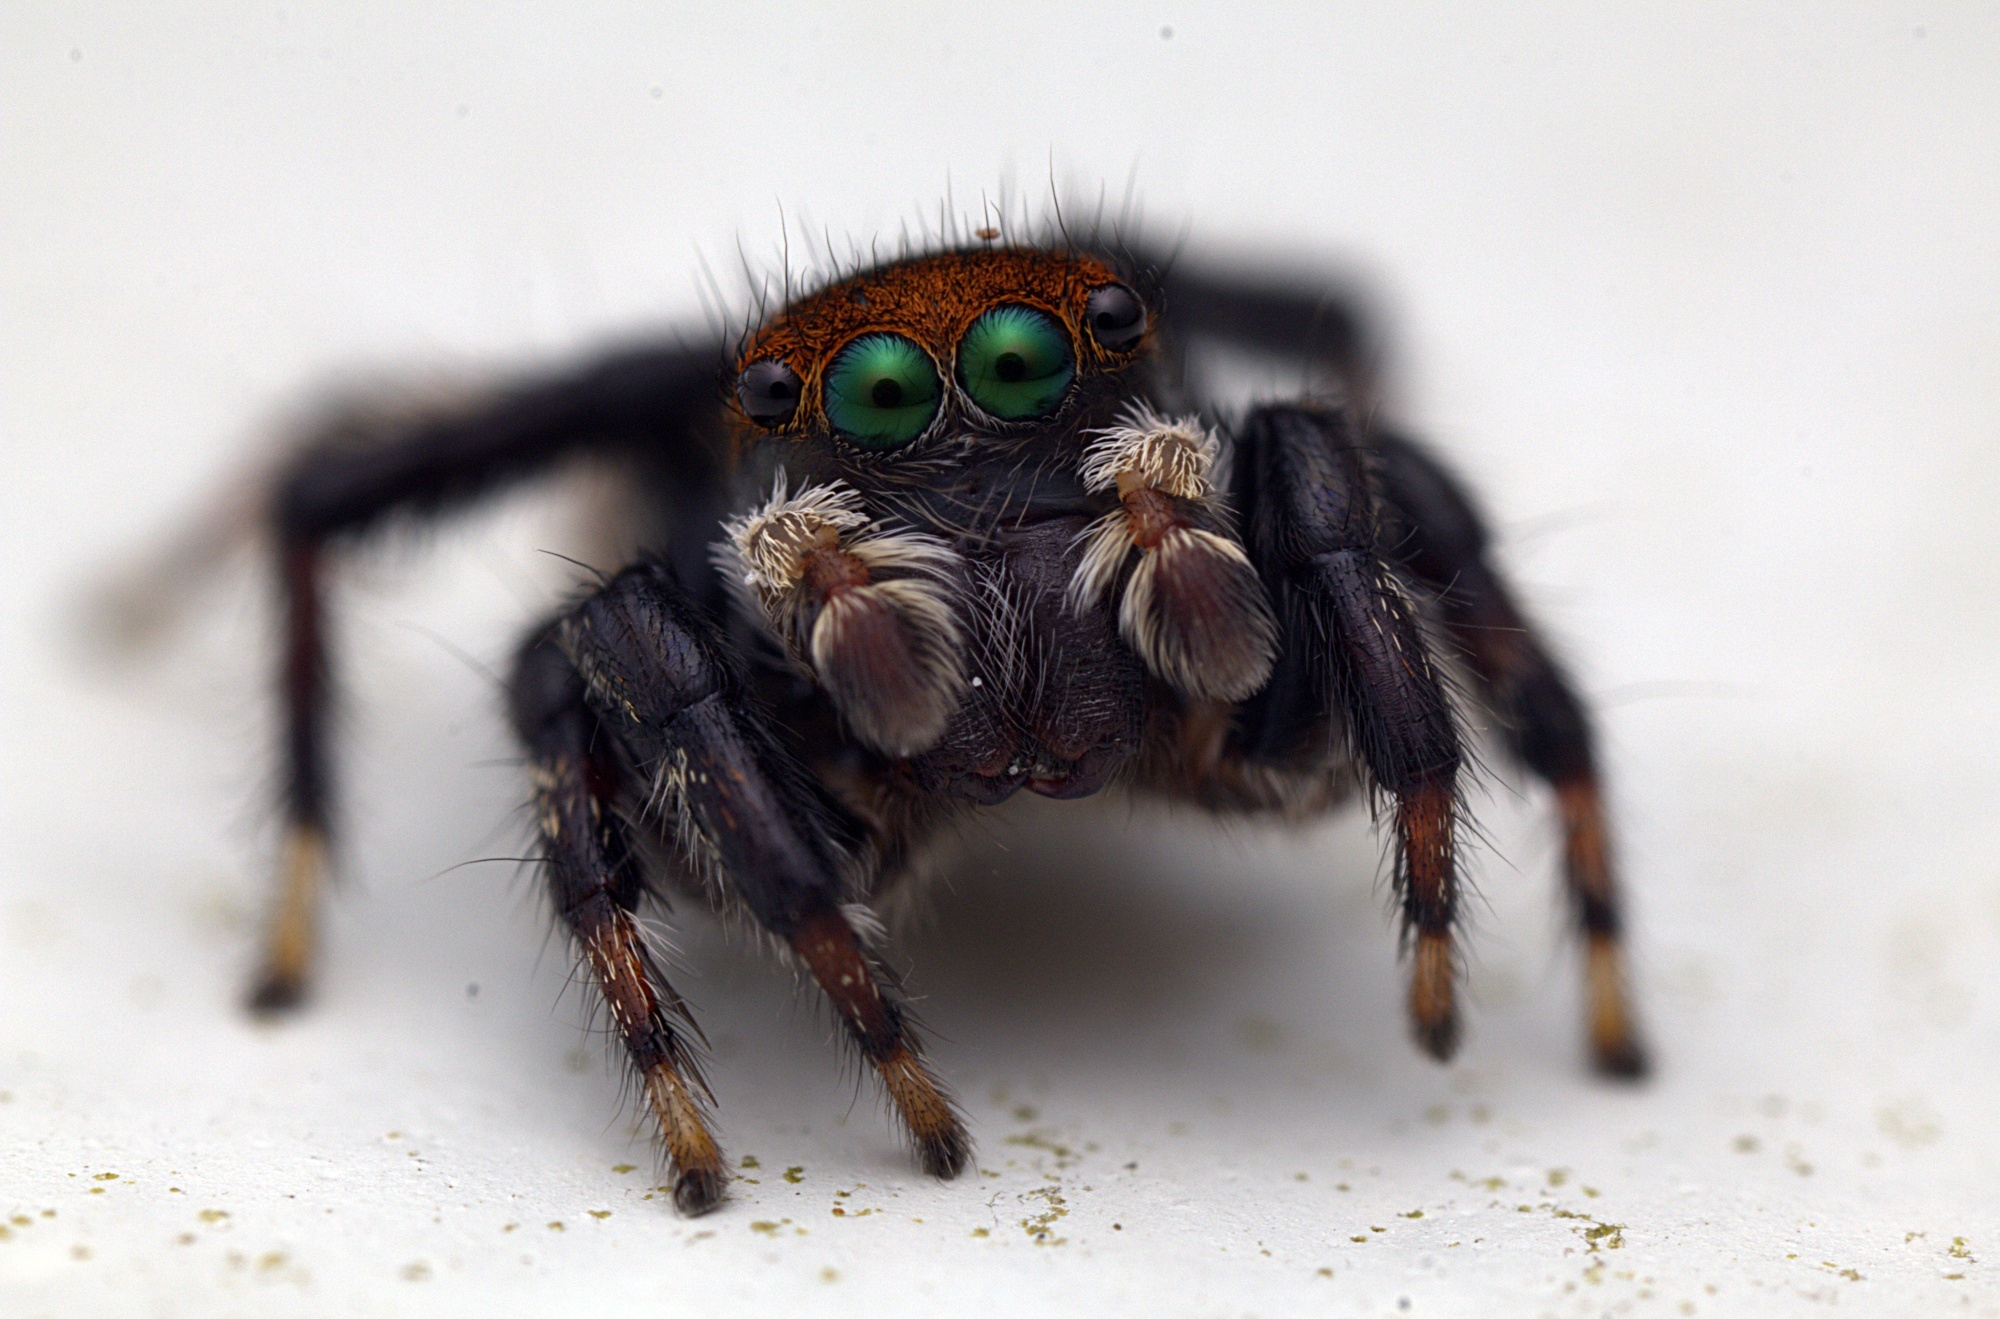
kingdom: Animalia
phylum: Arthropoda
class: Arachnida
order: Araneae
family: Salticidae
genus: Maratus
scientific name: Maratus griseus
